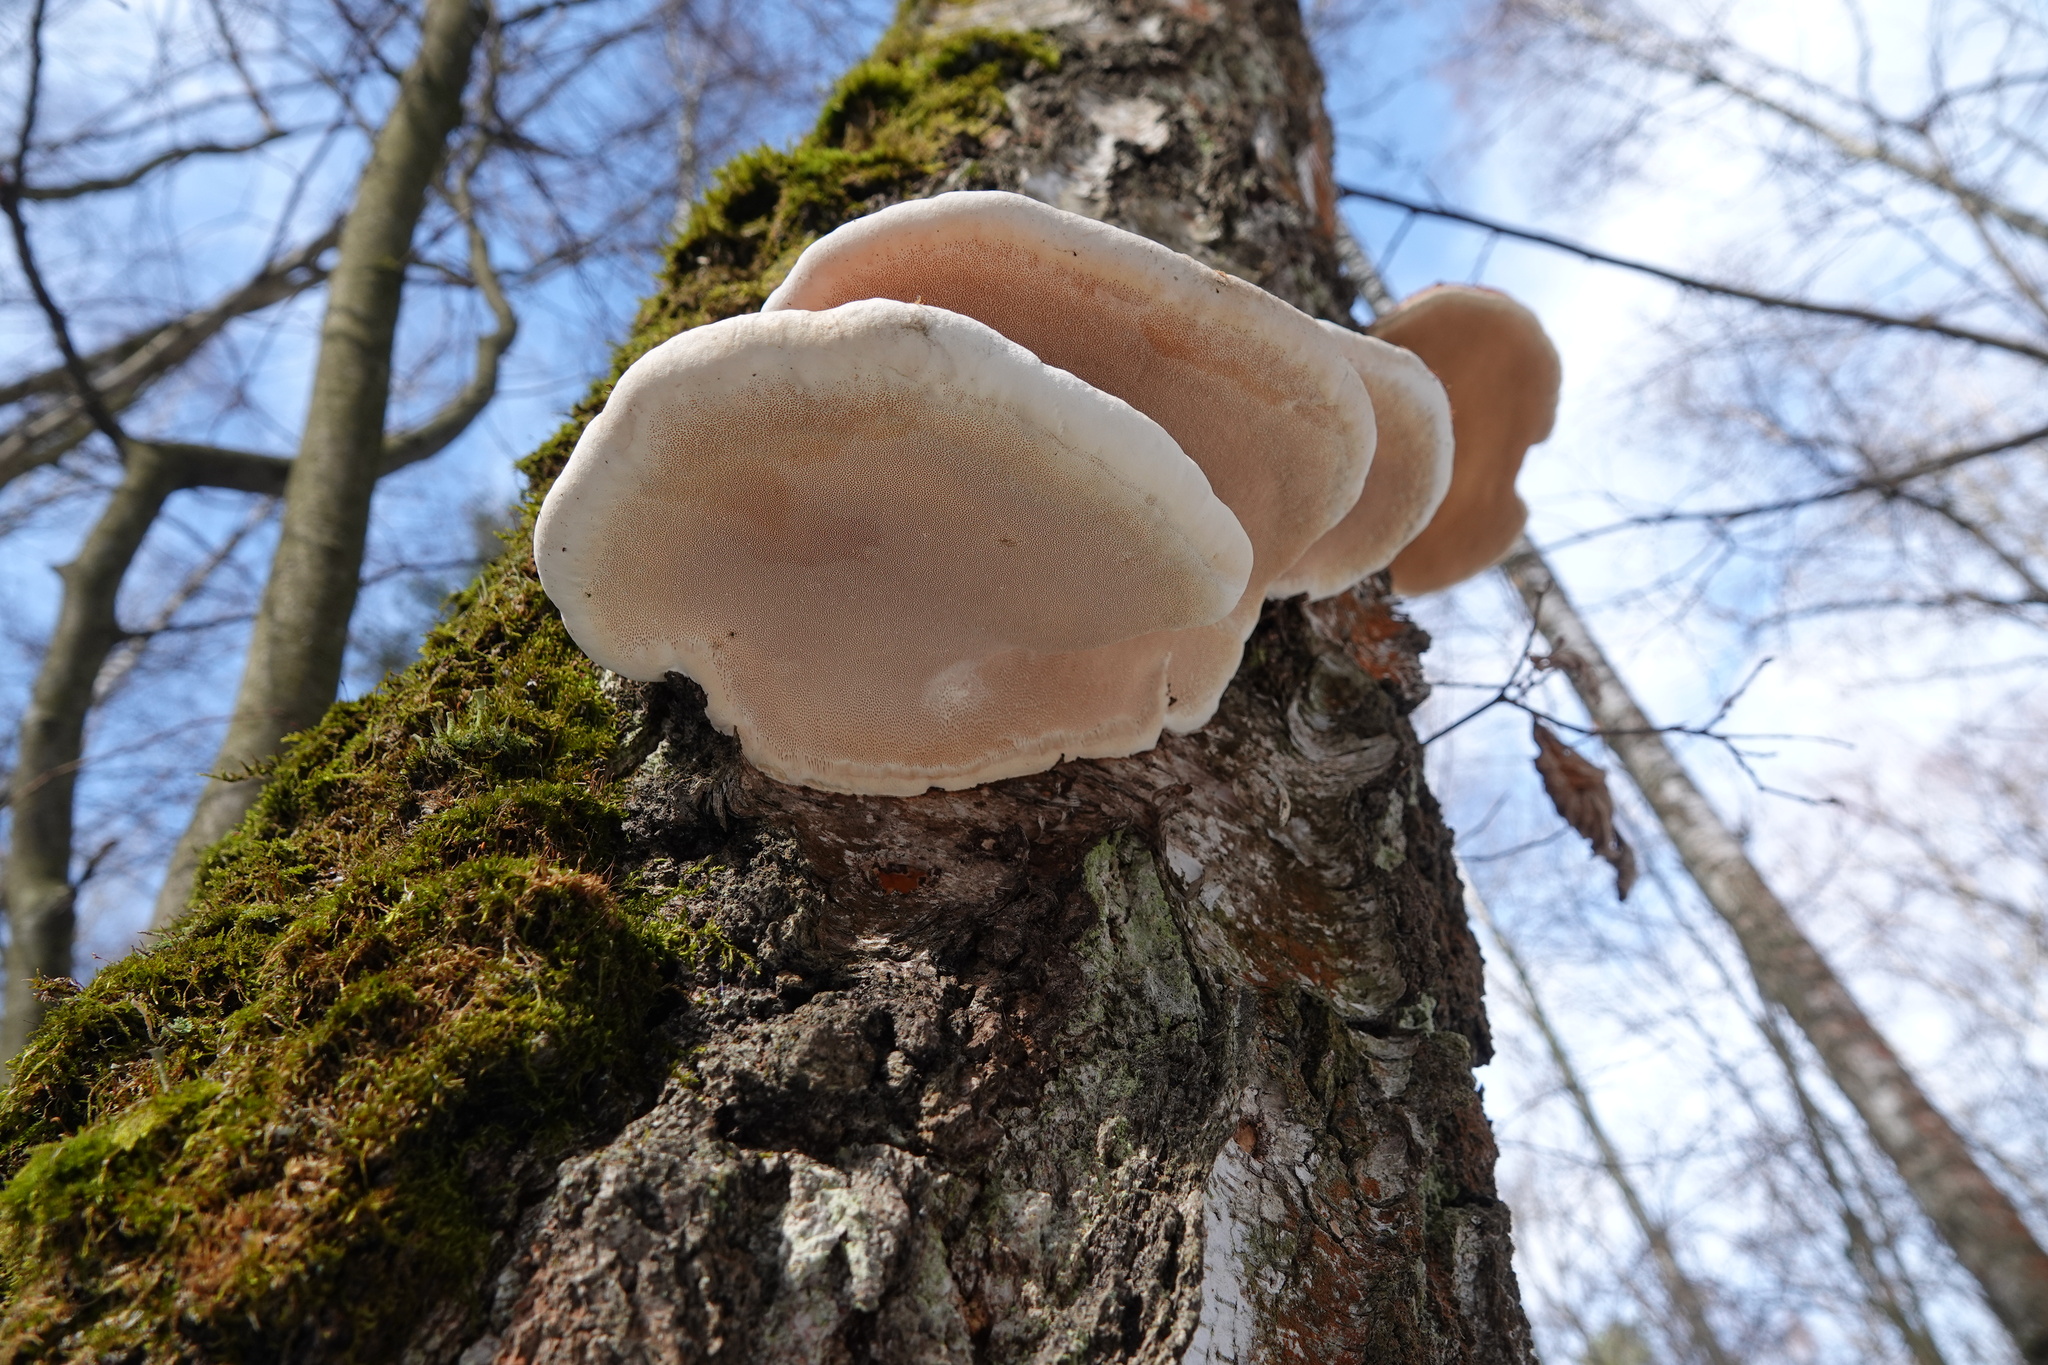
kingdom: Fungi
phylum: Basidiomycota
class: Agaricomycetes
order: Polyporales
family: Fomitopsidaceae
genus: Fomitopsis
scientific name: Fomitopsis pinicola
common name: Red-belted bracket
